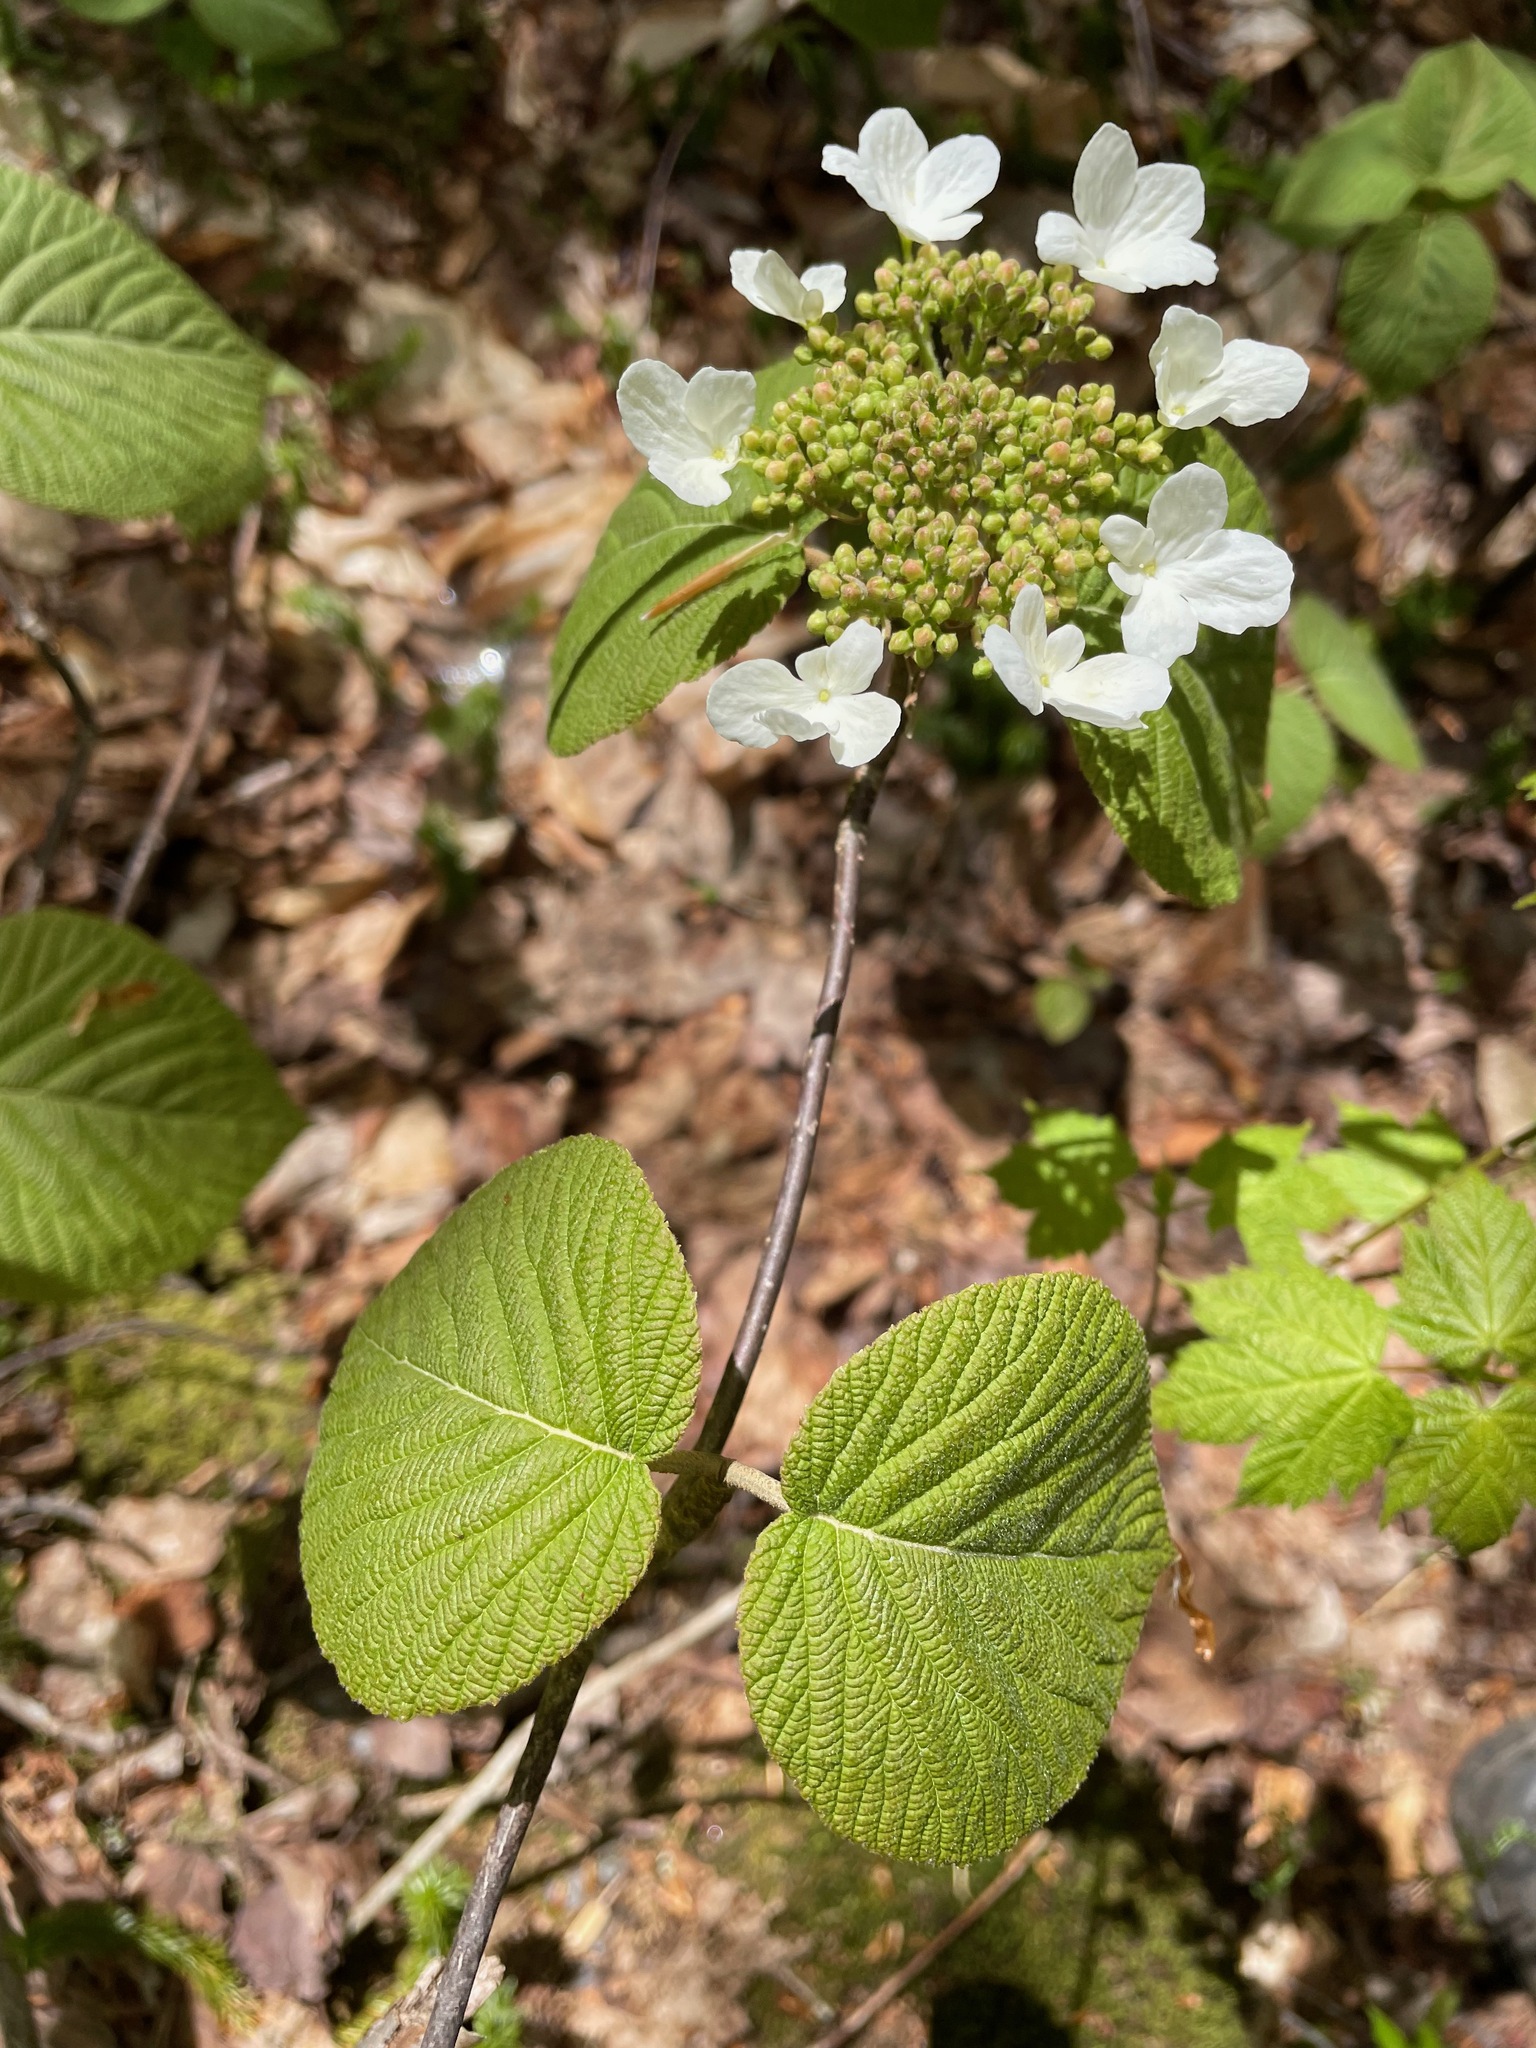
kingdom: Plantae
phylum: Tracheophyta
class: Magnoliopsida
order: Dipsacales
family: Viburnaceae
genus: Viburnum
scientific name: Viburnum lantanoides
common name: Hobblebush
